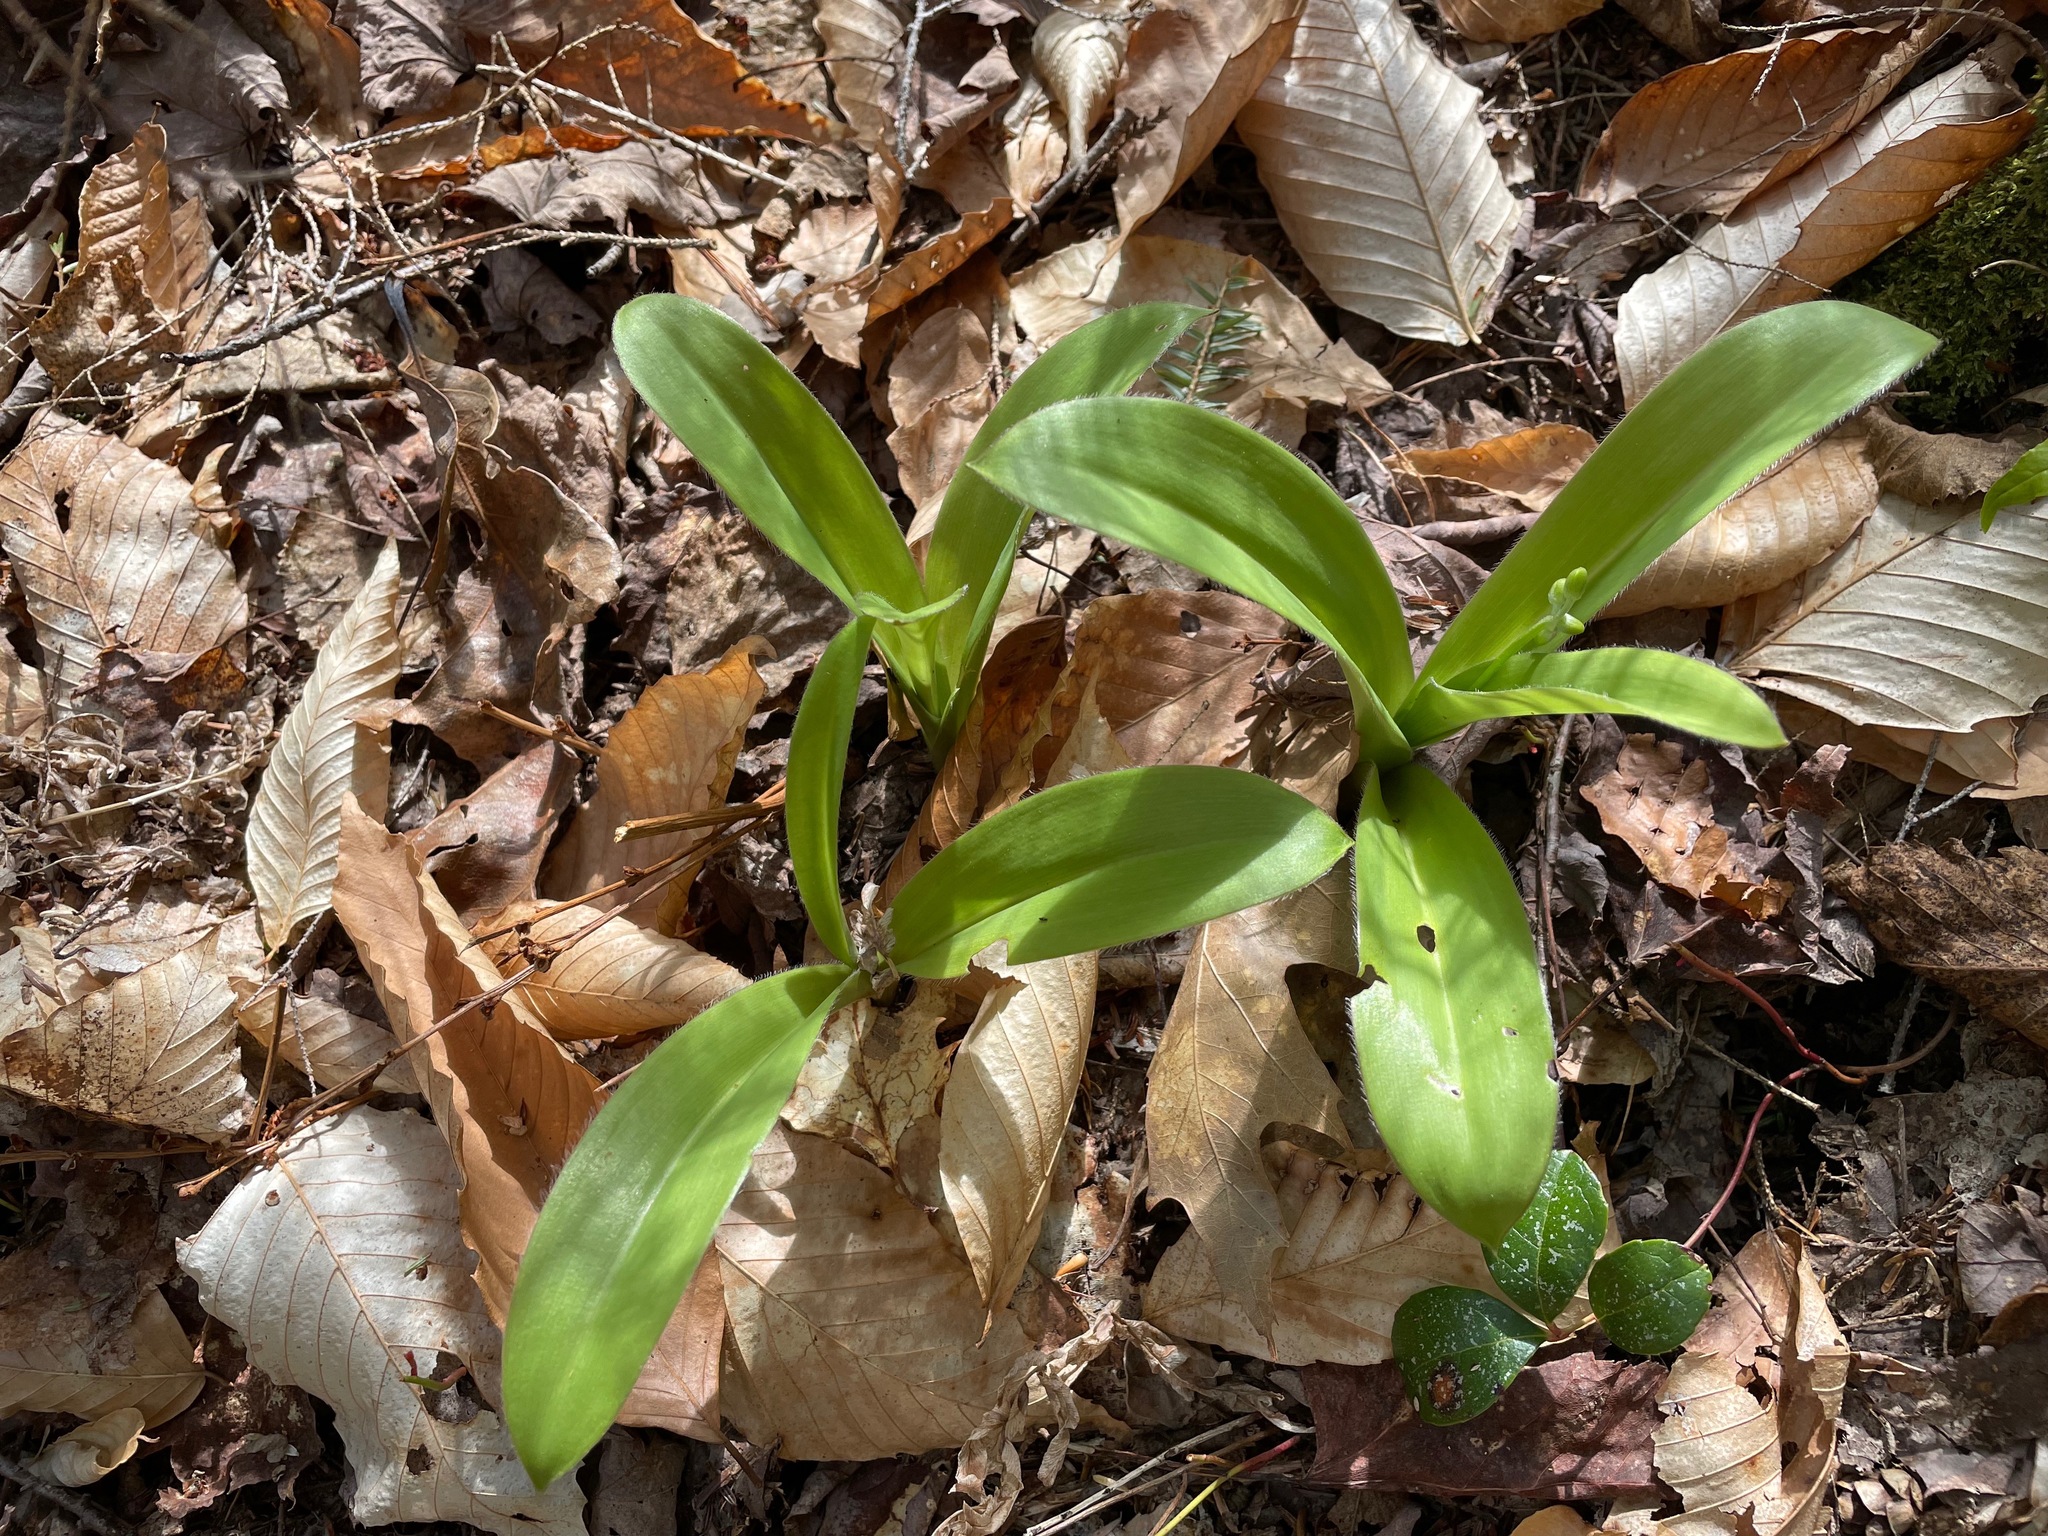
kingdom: Plantae
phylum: Tracheophyta
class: Liliopsida
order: Liliales
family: Liliaceae
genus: Clintonia
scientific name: Clintonia borealis
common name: Yellow clintonia
